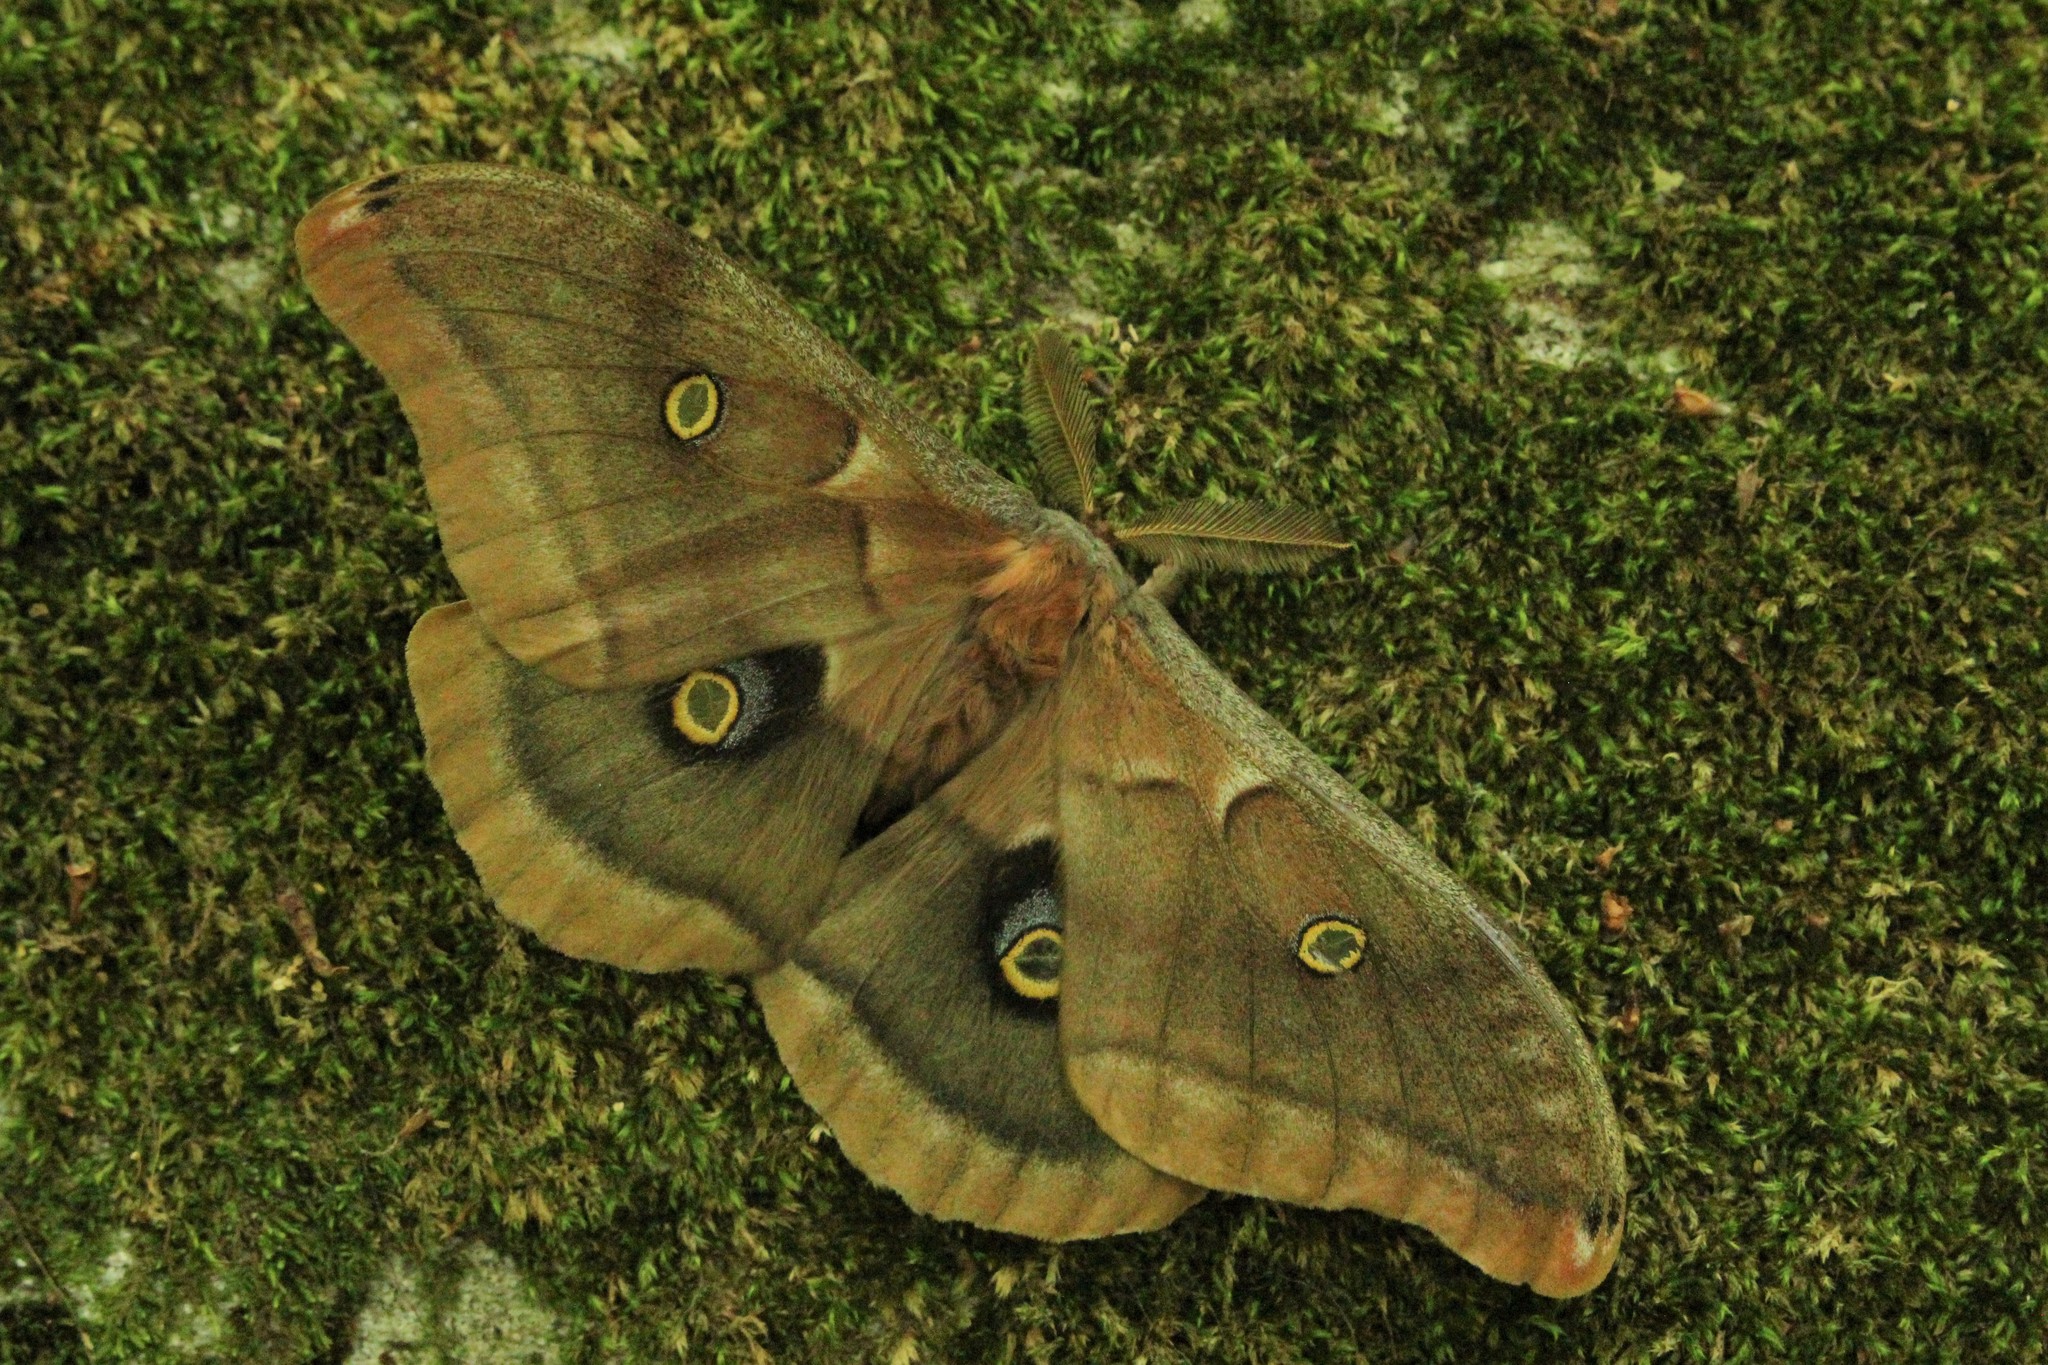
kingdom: Animalia
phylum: Arthropoda
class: Insecta
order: Lepidoptera
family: Saturniidae
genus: Antheraea
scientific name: Antheraea polyphemus
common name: Polyphemus moth
